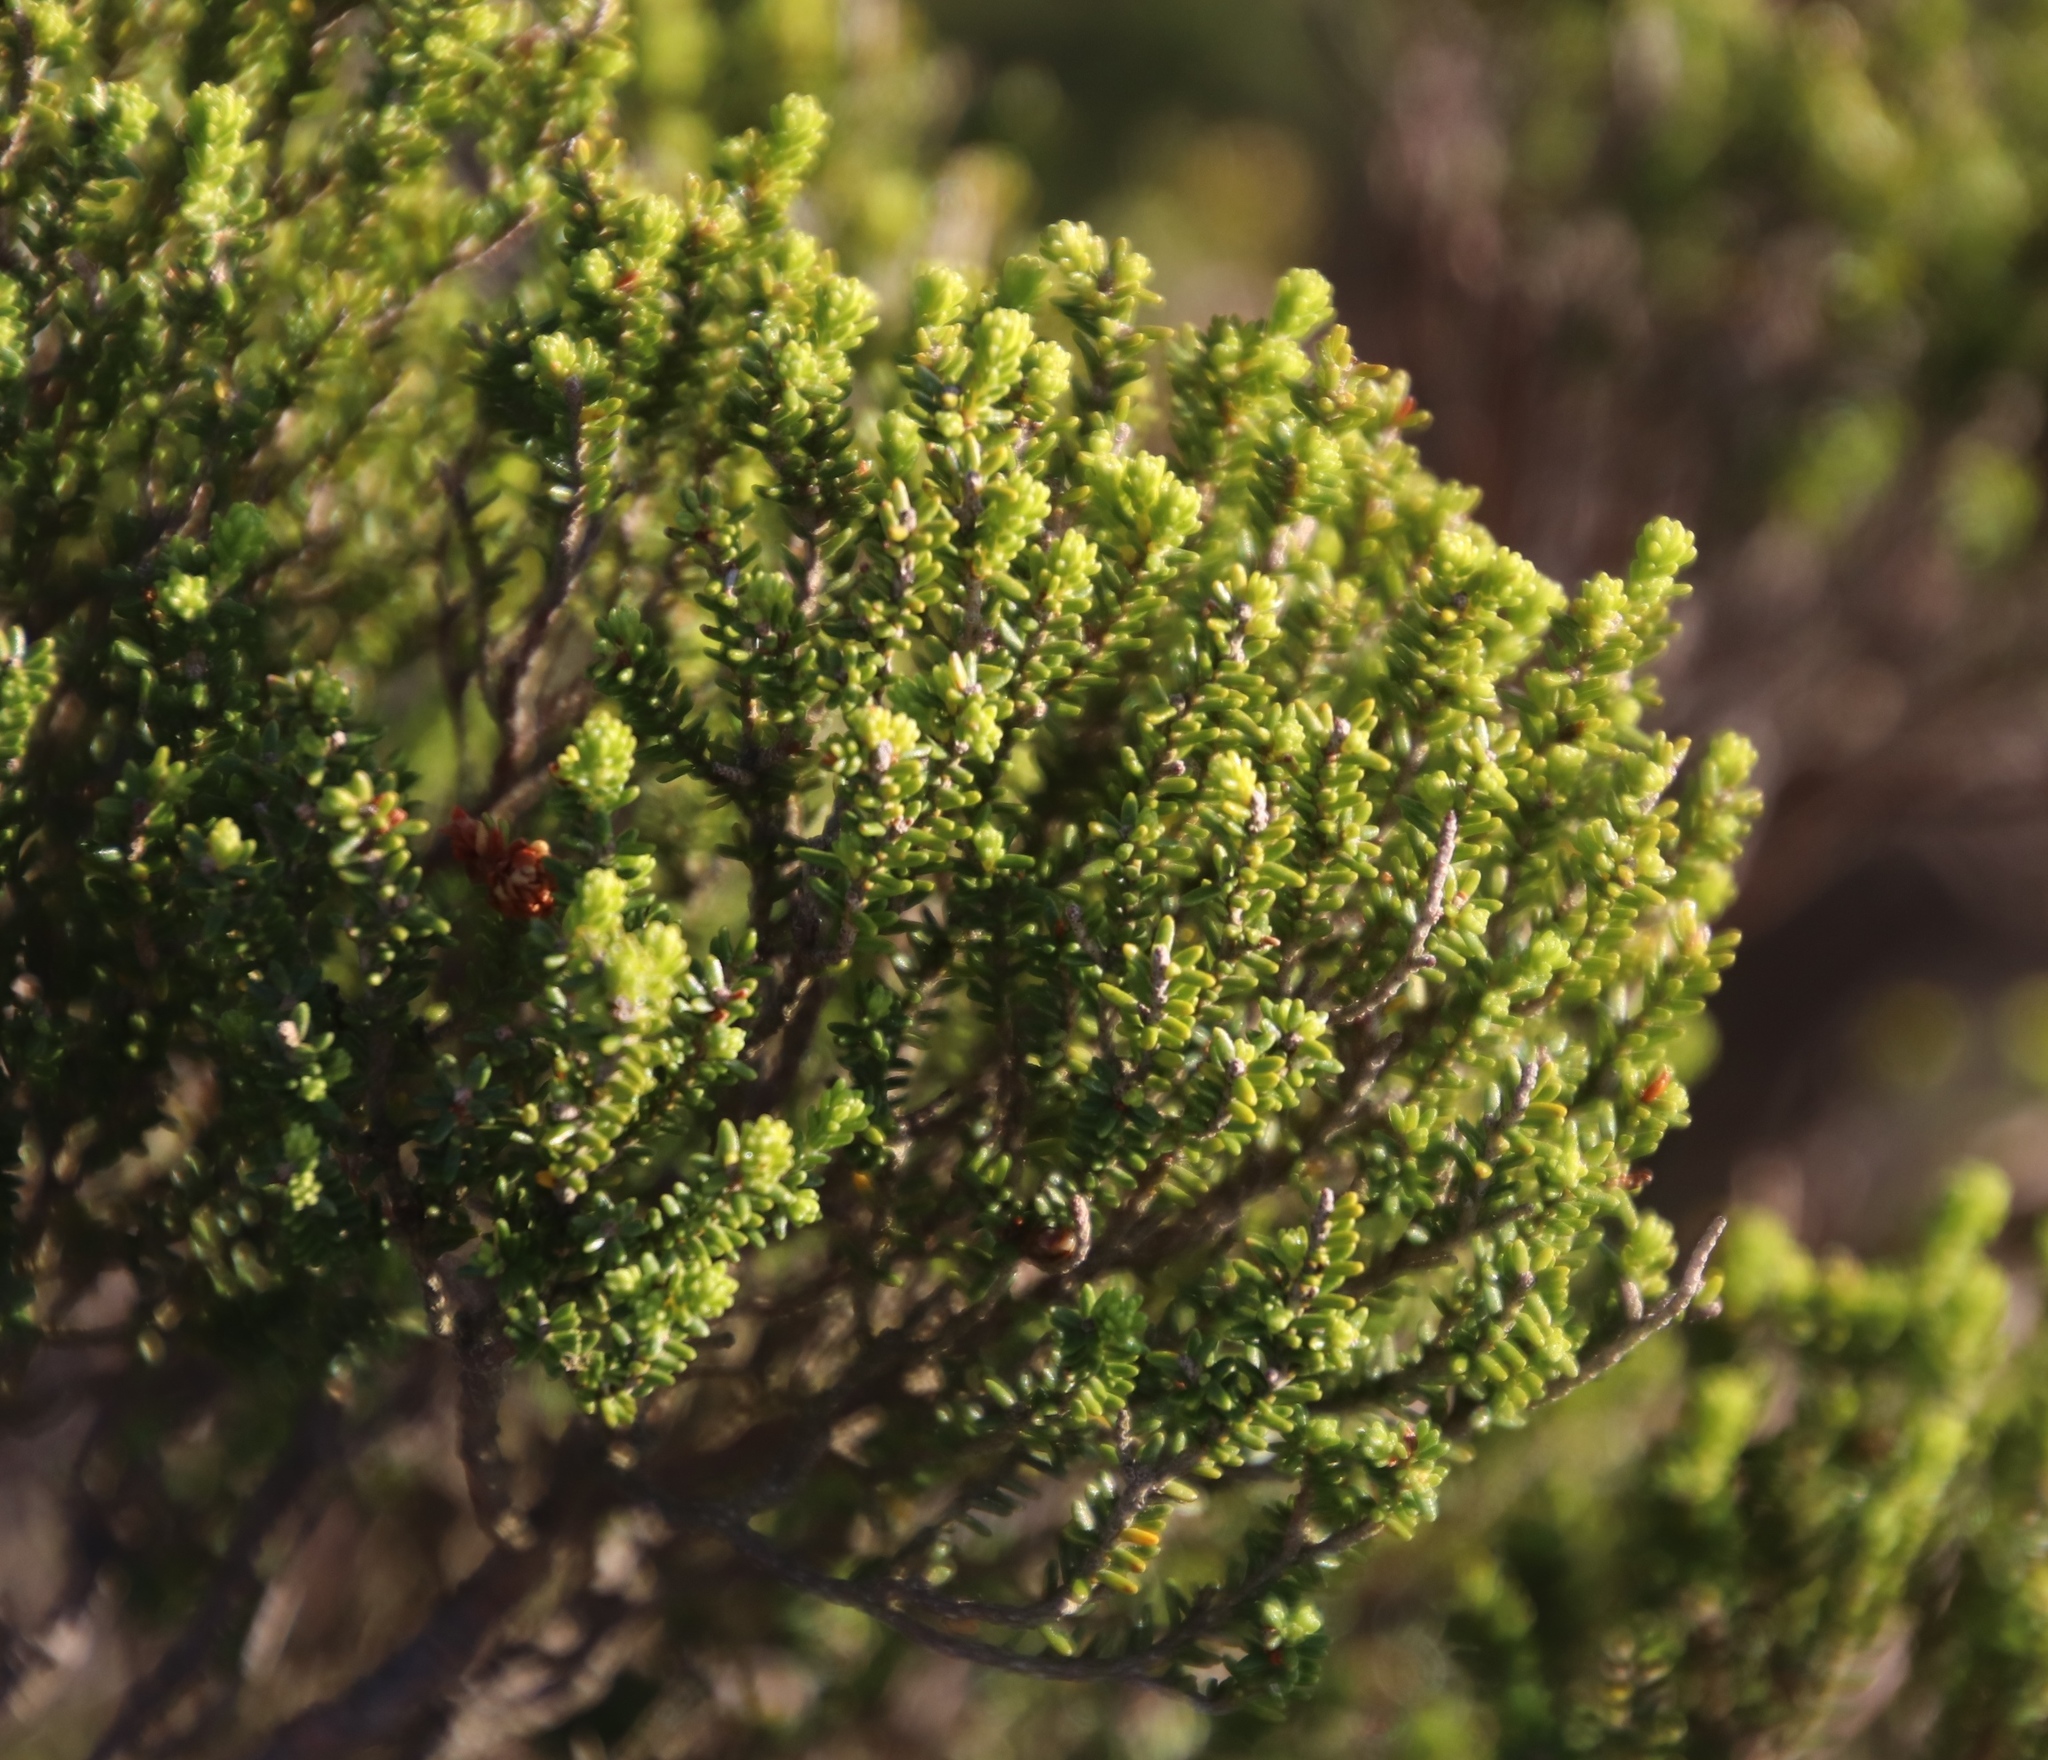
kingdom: Plantae
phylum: Tracheophyta
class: Magnoliopsida
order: Ericales
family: Ericaceae
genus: Erica
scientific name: Erica tristis
